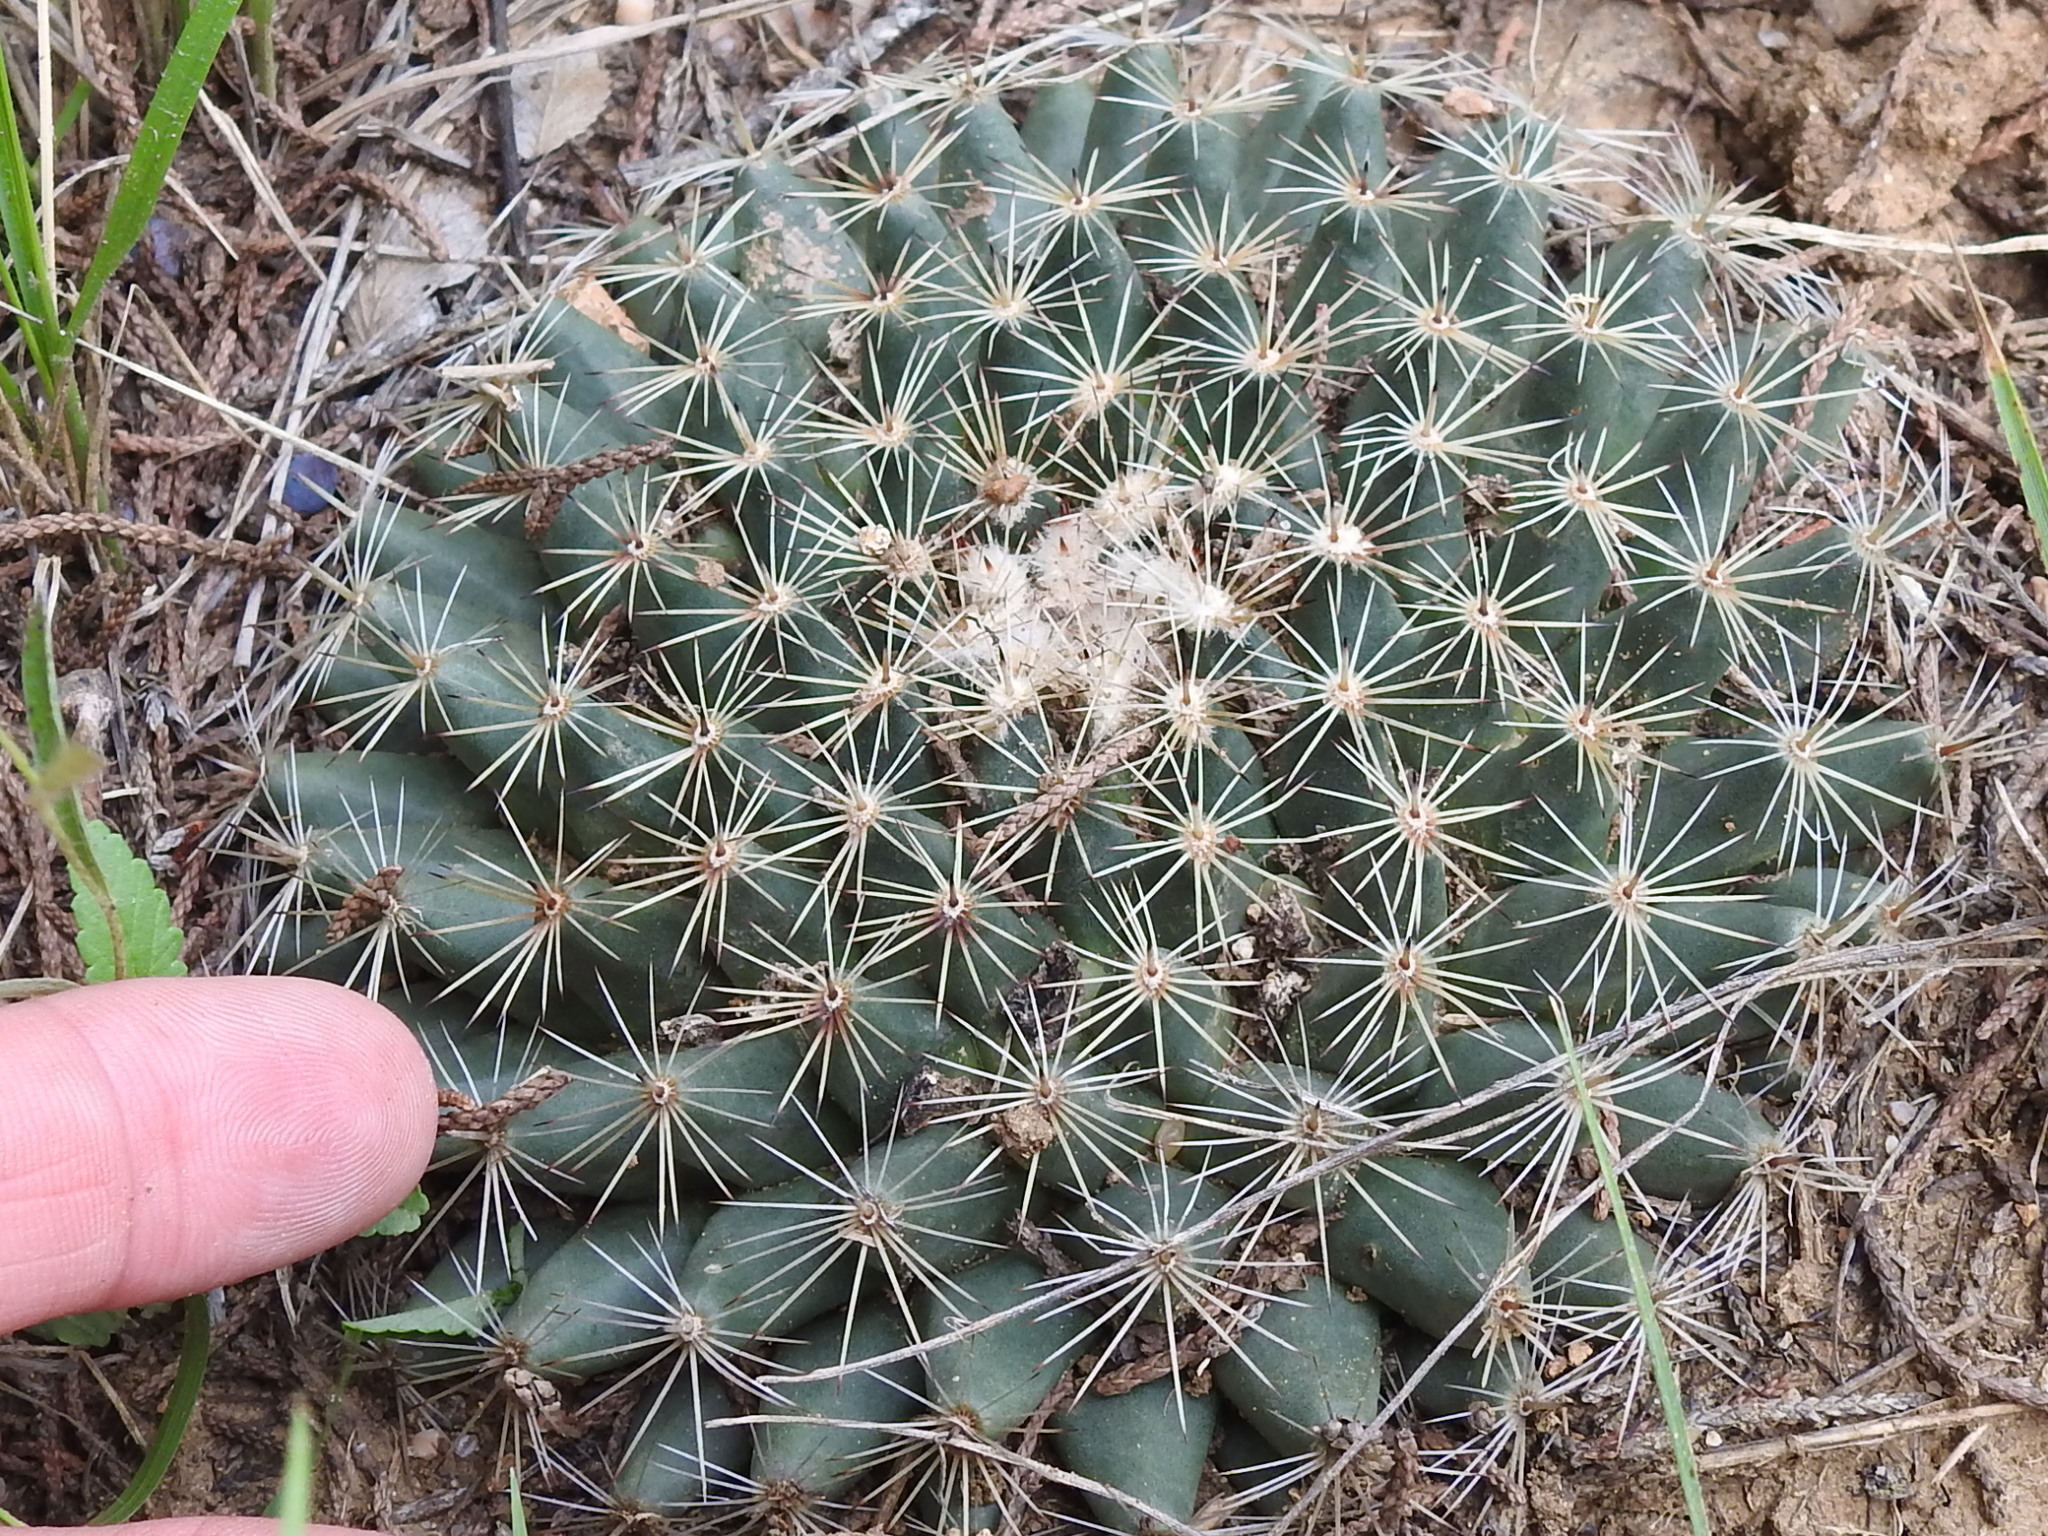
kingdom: Plantae
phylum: Tracheophyta
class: Magnoliopsida
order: Caryophyllales
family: Cactaceae
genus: Mammillaria
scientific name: Mammillaria heyderi
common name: Little nipple cactus
